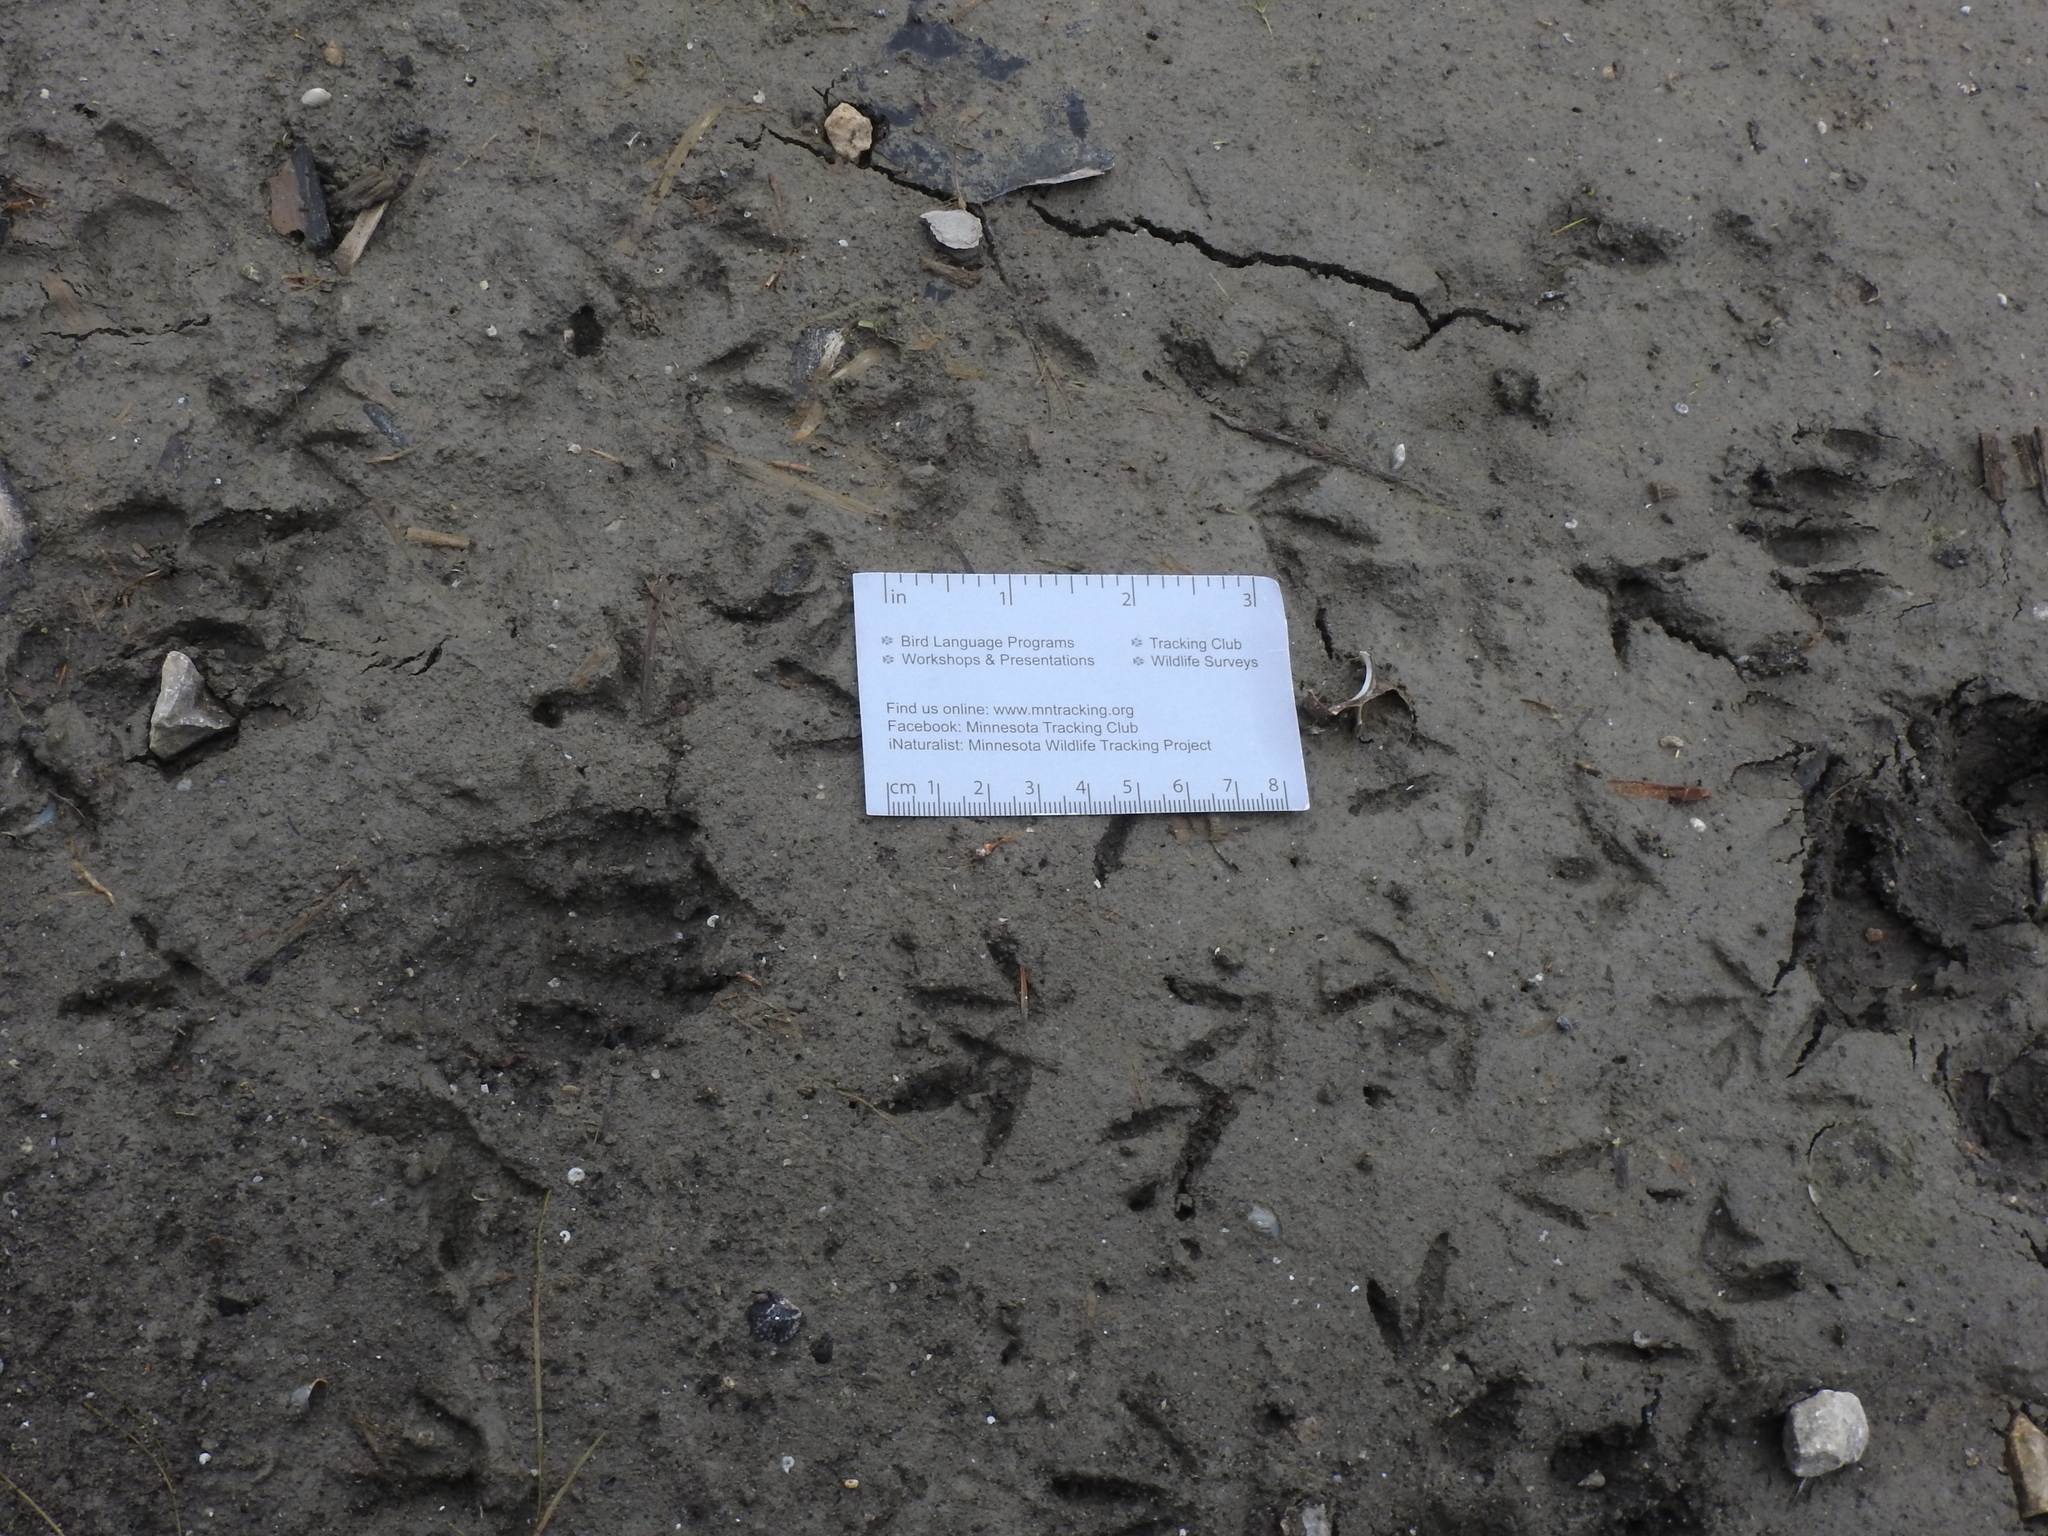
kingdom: Animalia
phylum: Chordata
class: Mammalia
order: Carnivora
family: Procyonidae
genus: Procyon
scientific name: Procyon lotor
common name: Raccoon
